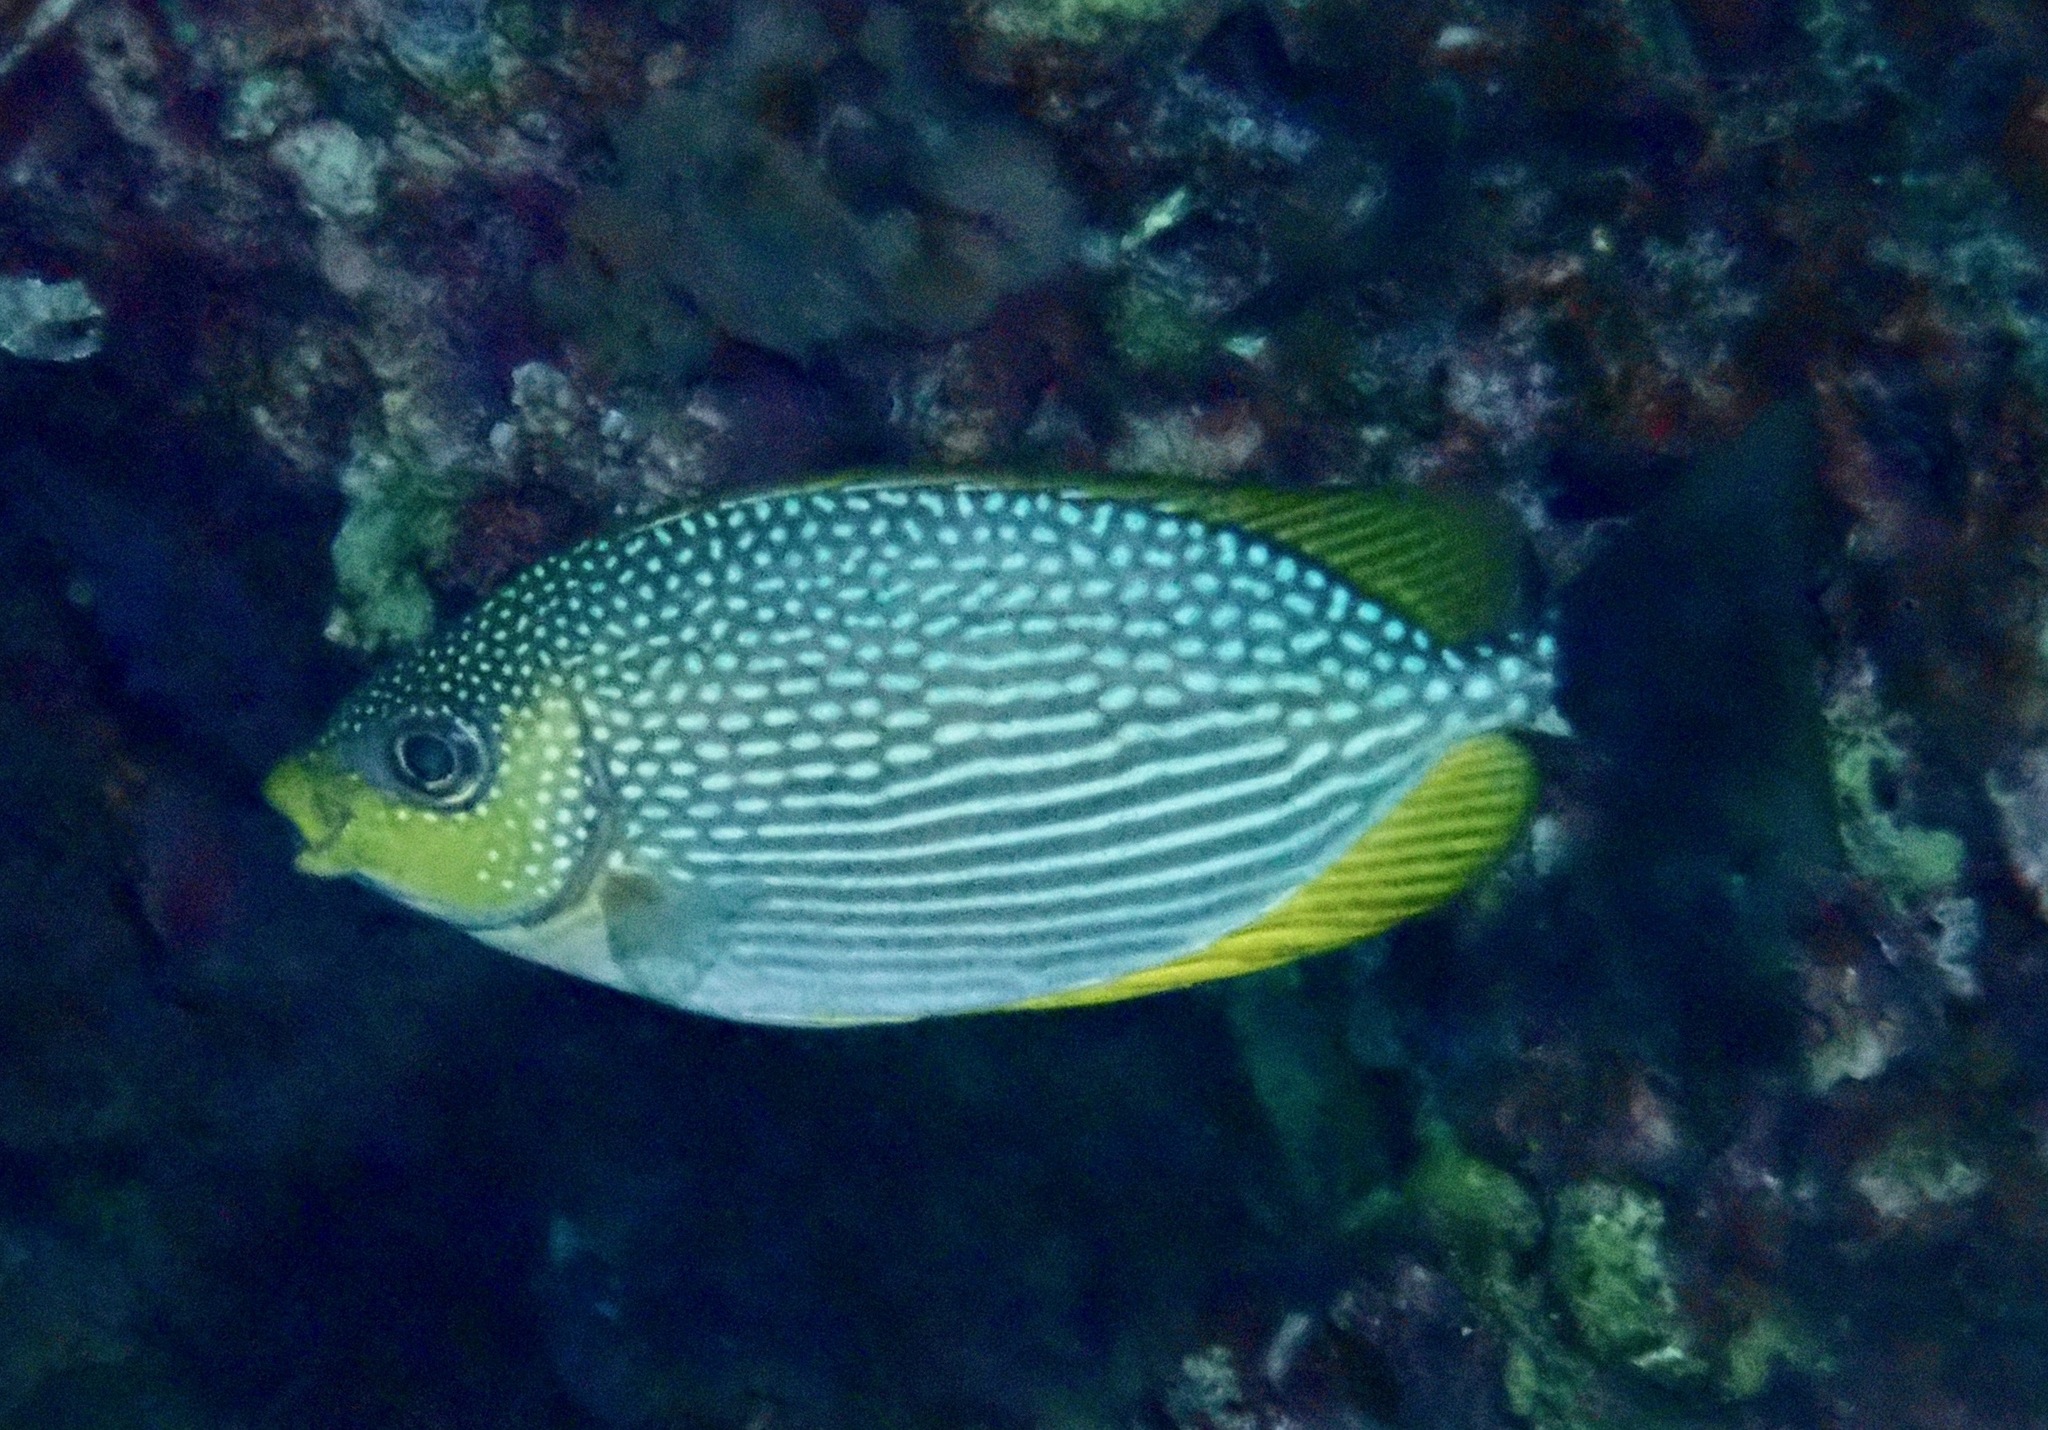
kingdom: Animalia
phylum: Chordata
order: Perciformes
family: Siganidae
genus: Siganus
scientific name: Siganus javus
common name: Java rabbitfish
